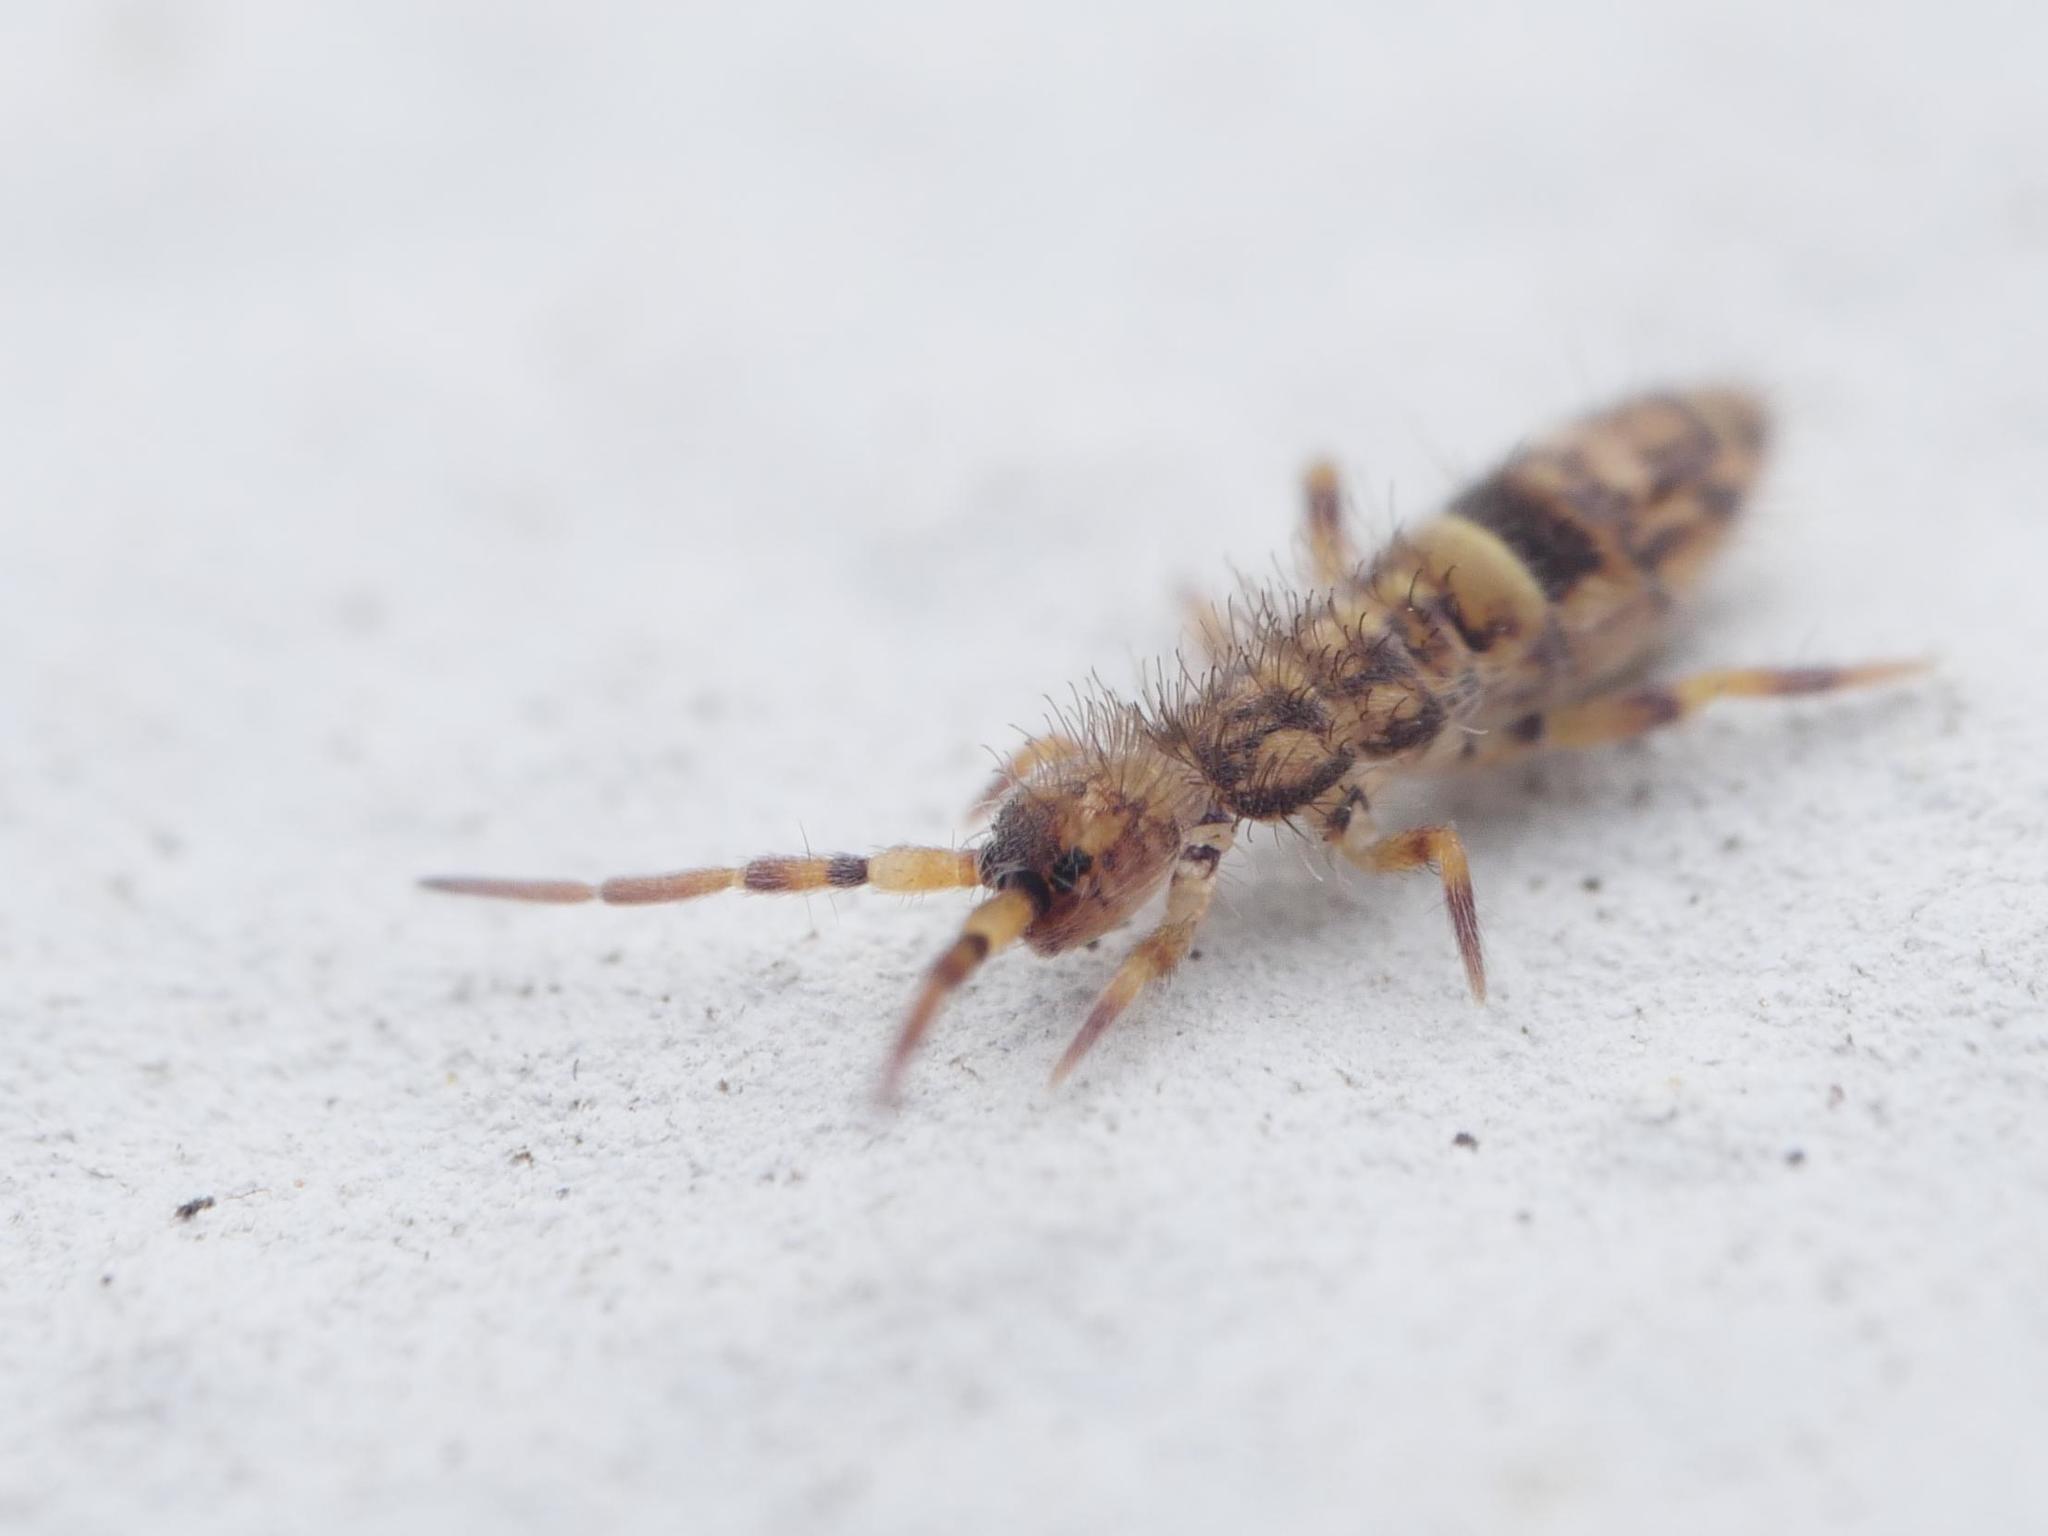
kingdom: Animalia
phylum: Arthropoda
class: Collembola
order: Entomobryomorpha
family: Orchesellidae
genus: Orchesella
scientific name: Orchesella cincta
